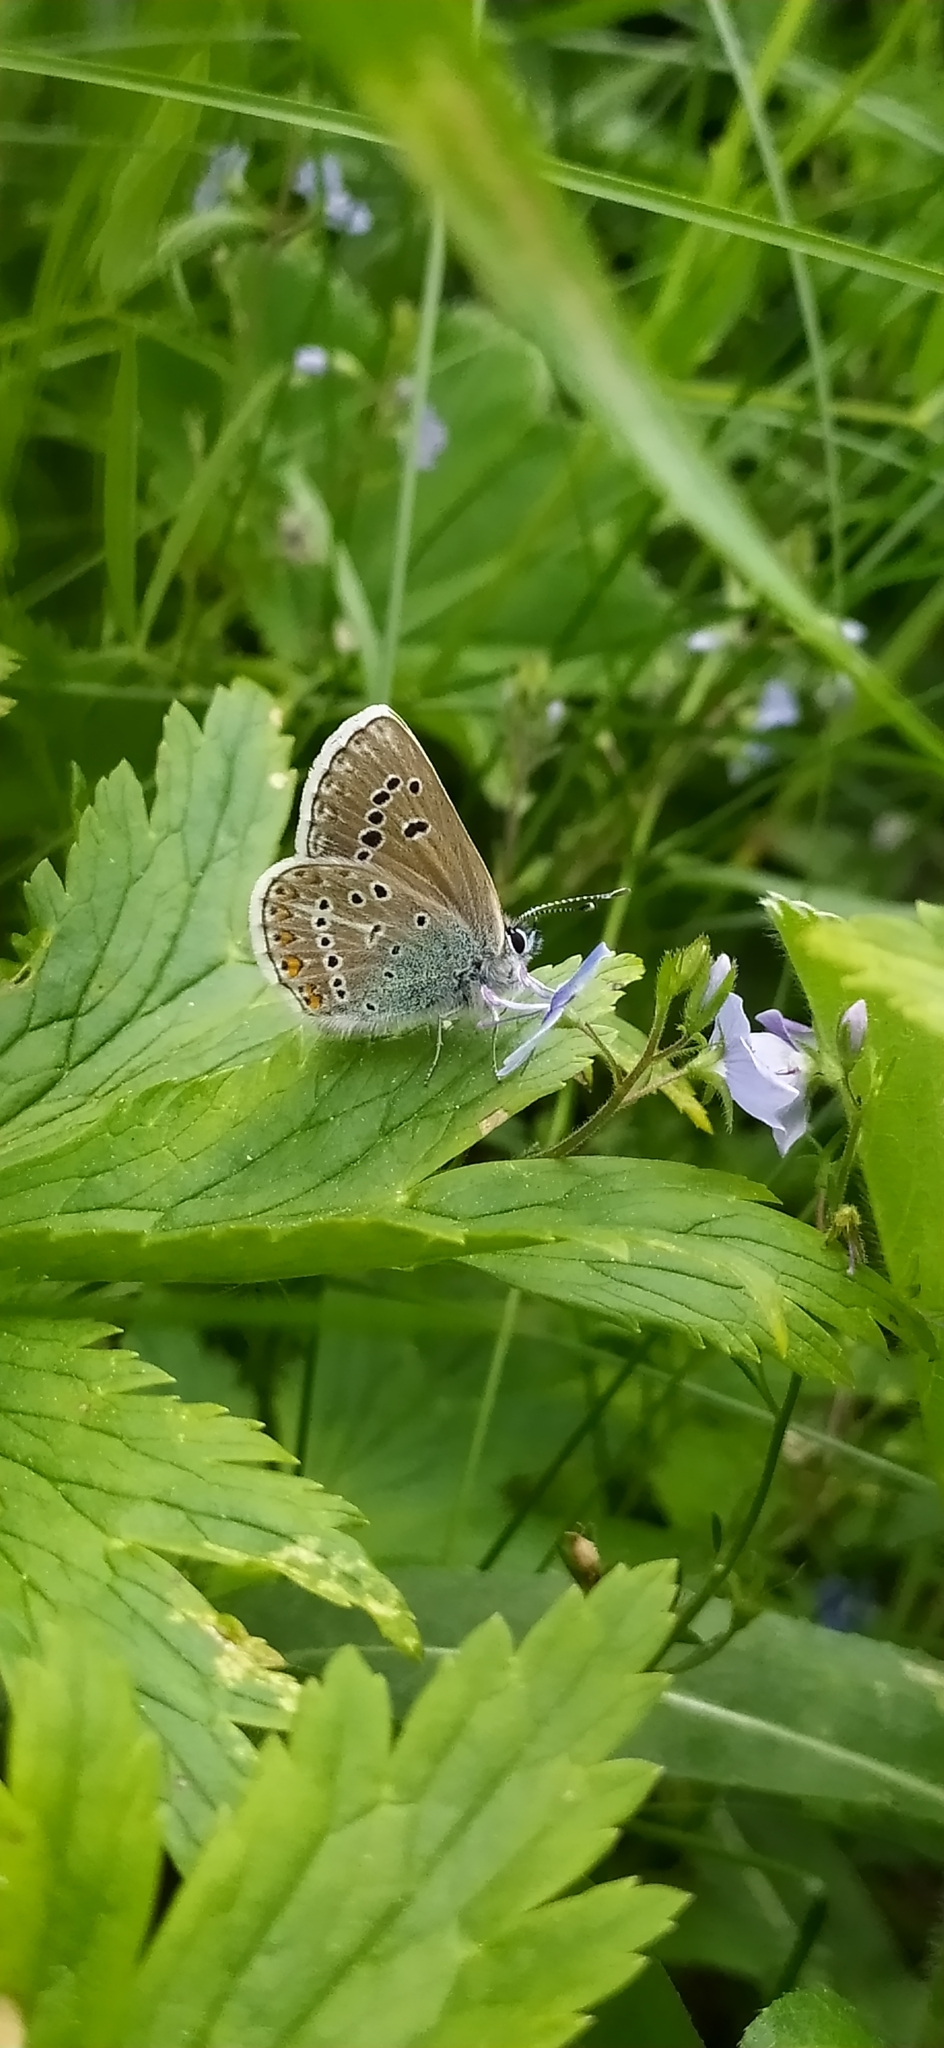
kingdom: Animalia
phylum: Arthropoda
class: Insecta
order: Lepidoptera
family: Lycaenidae
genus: Eumedonia
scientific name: Eumedonia eumedon
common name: Geranium argus
